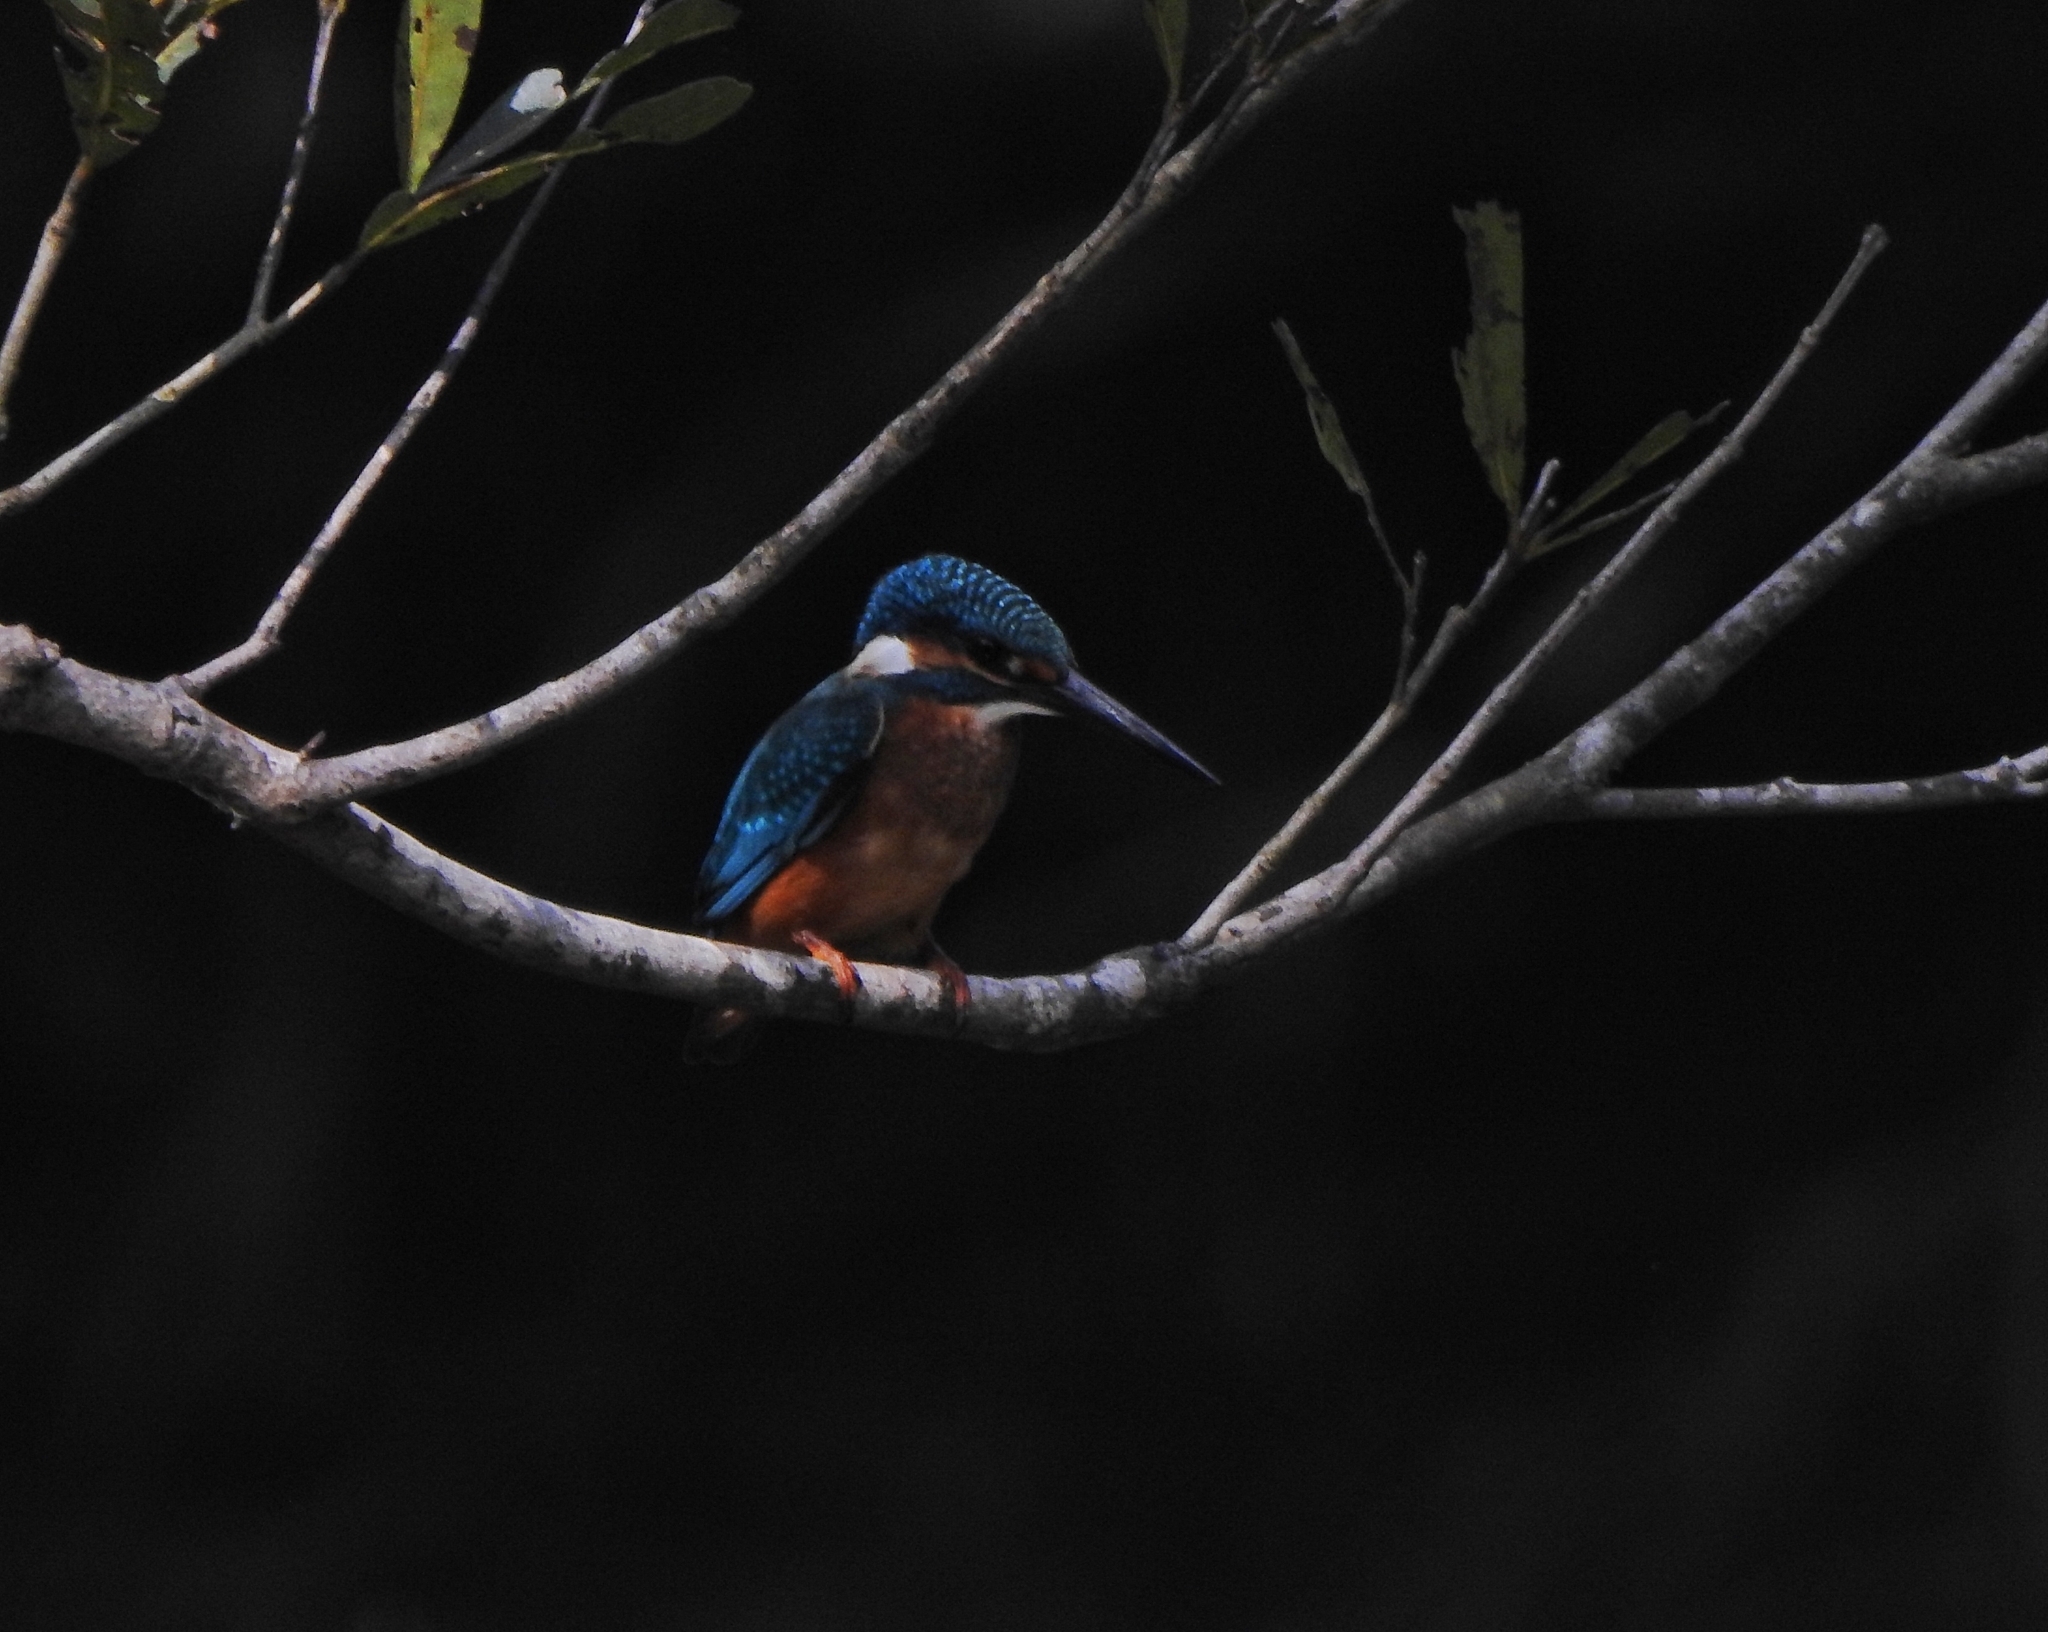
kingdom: Animalia
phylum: Chordata
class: Aves
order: Coraciiformes
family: Alcedinidae
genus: Alcedo
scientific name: Alcedo atthis
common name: Common kingfisher
